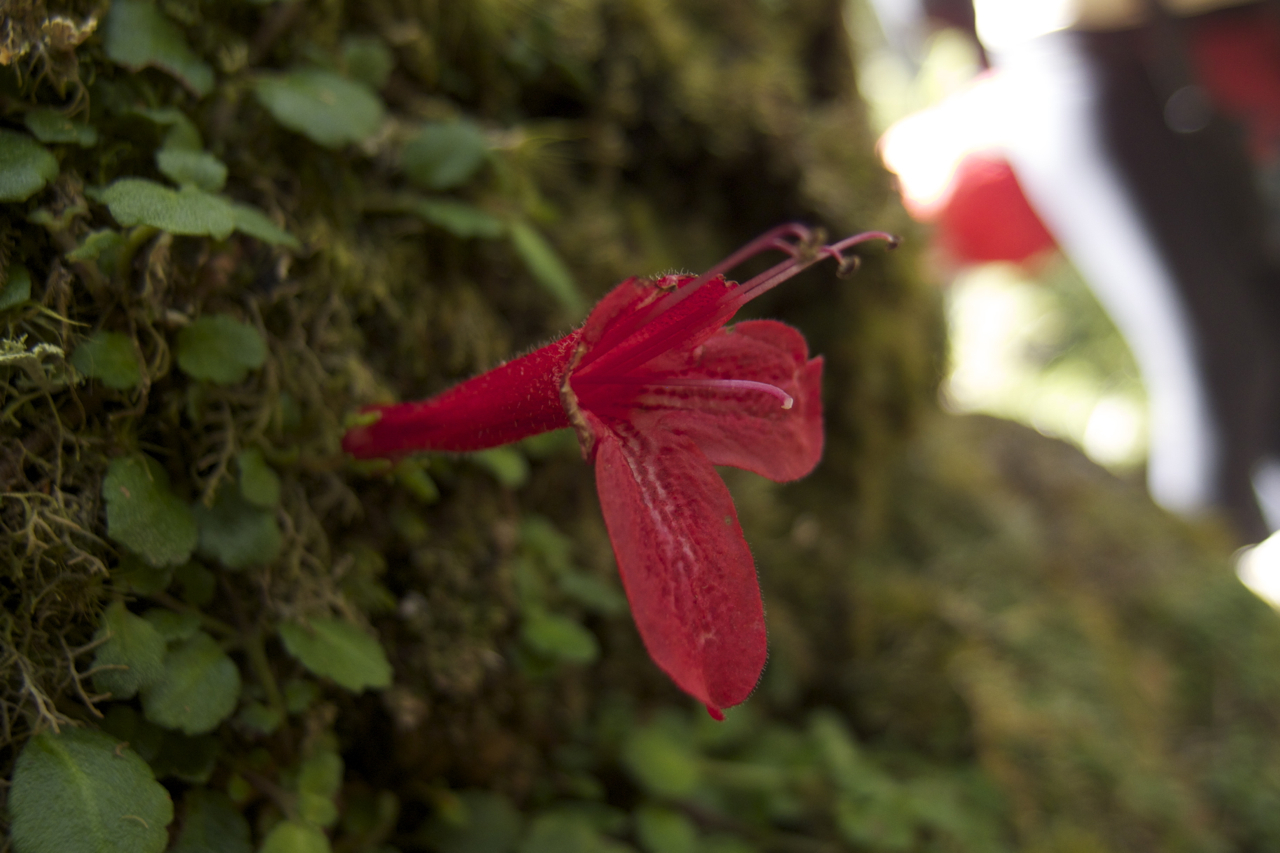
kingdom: Plantae
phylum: Tracheophyta
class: Magnoliopsida
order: Lamiales
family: Gesneriaceae
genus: Asteranthera
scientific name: Asteranthera ovata
